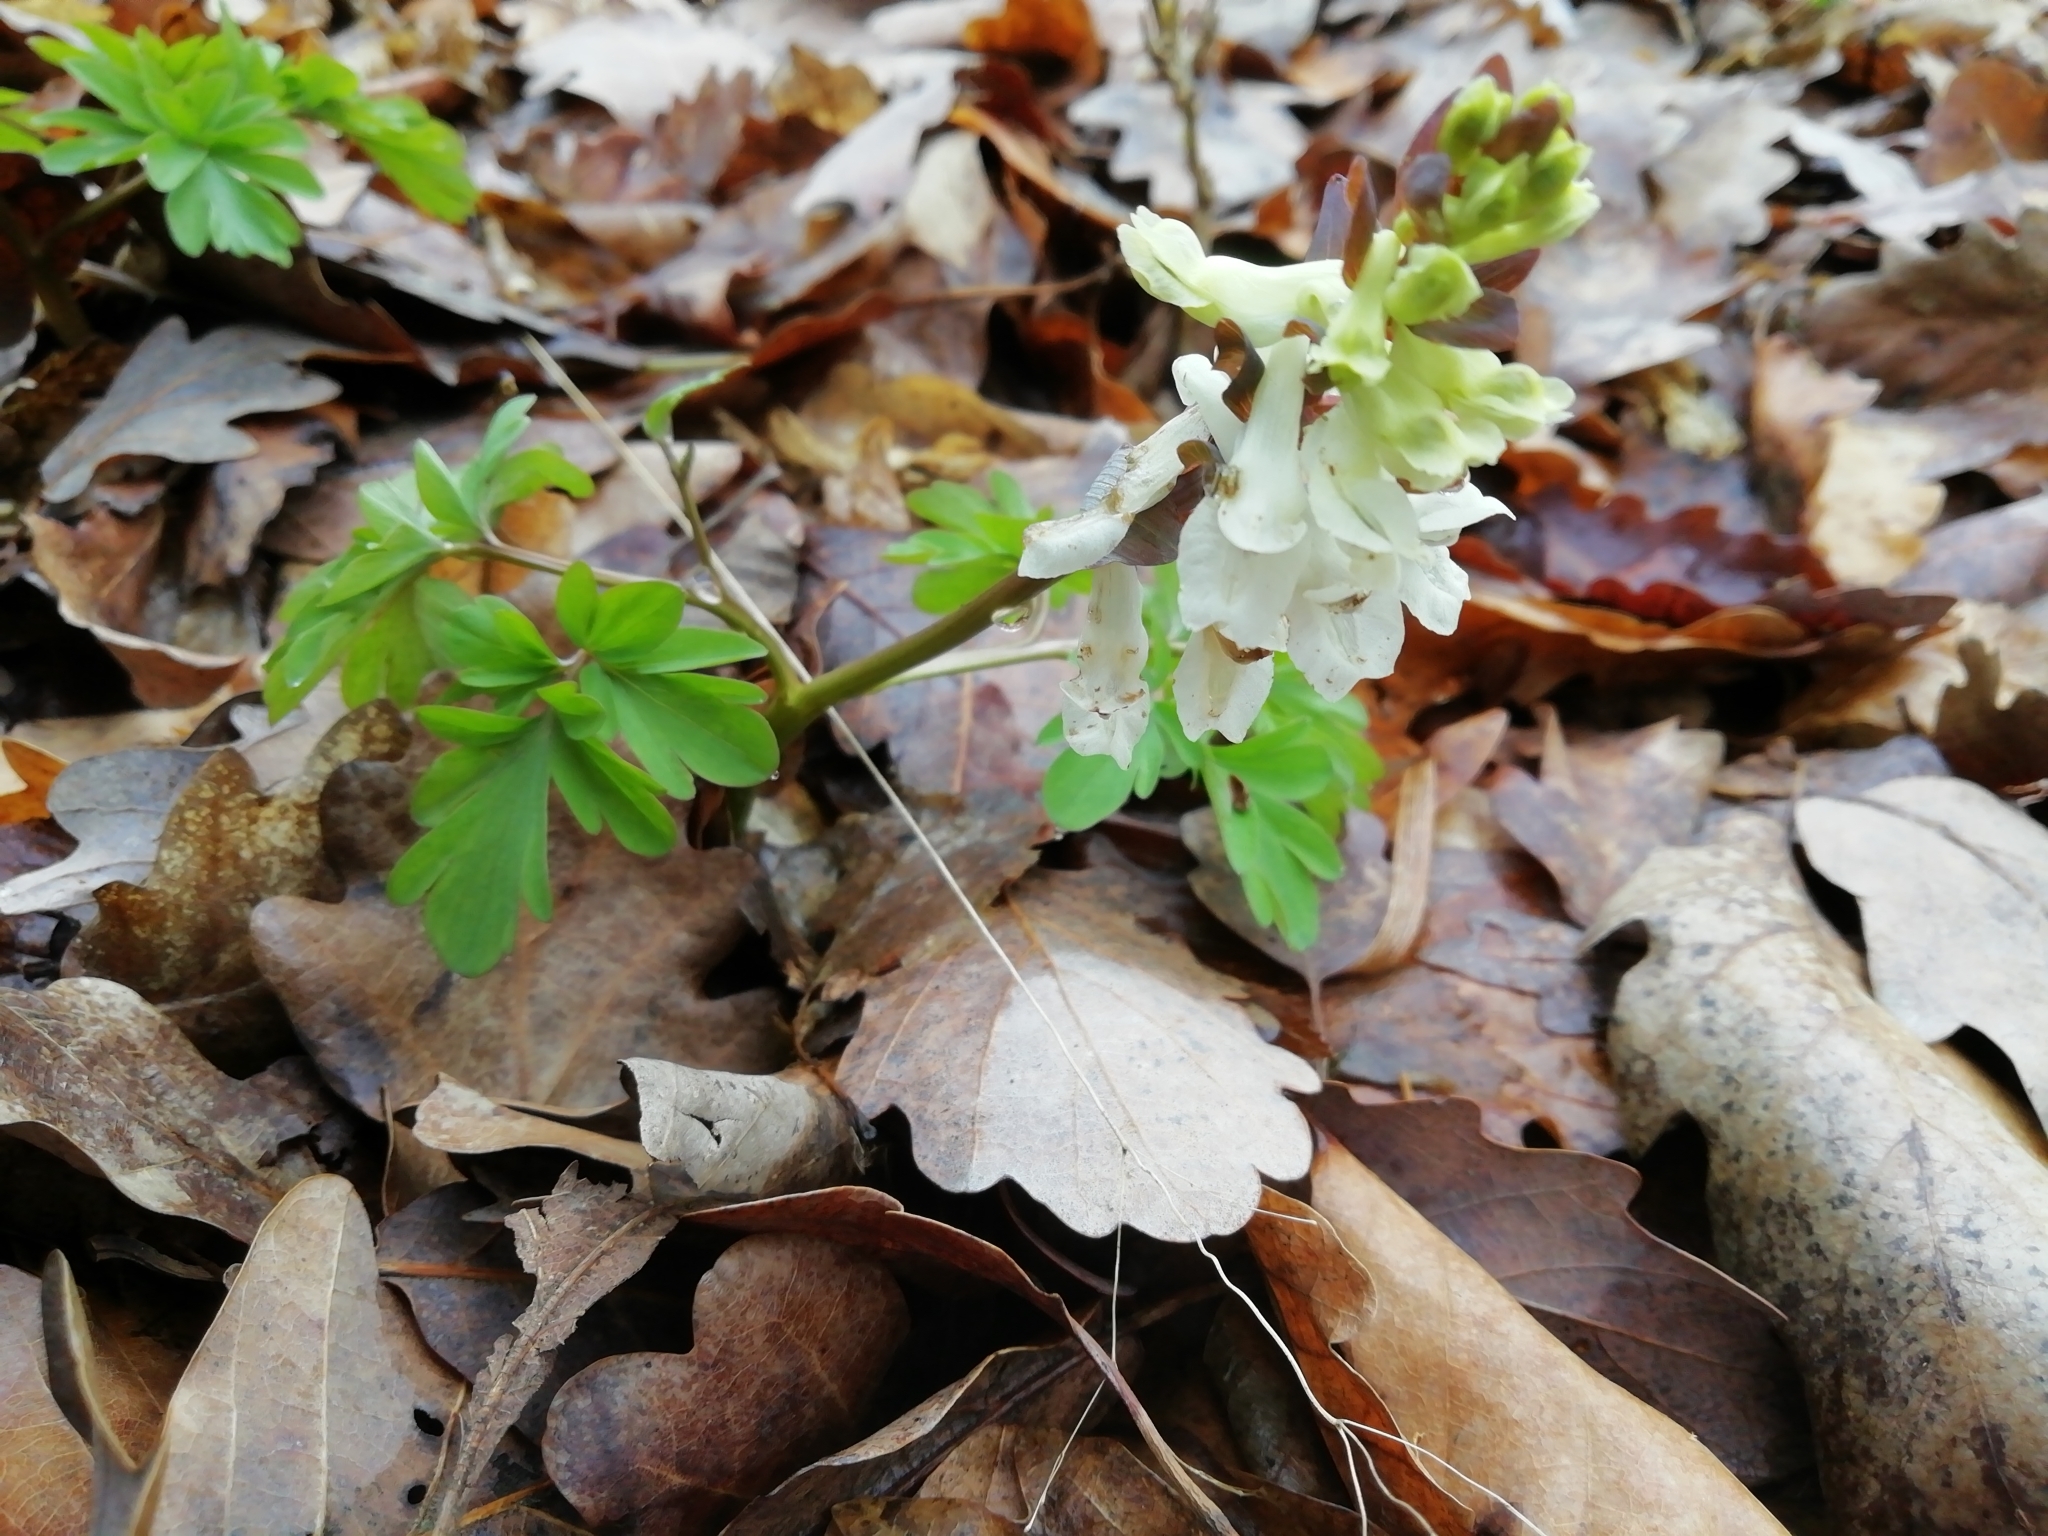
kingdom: Plantae
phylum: Tracheophyta
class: Magnoliopsida
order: Ranunculales
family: Papaveraceae
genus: Corydalis
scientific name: Corydalis cava
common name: Hollowroot
